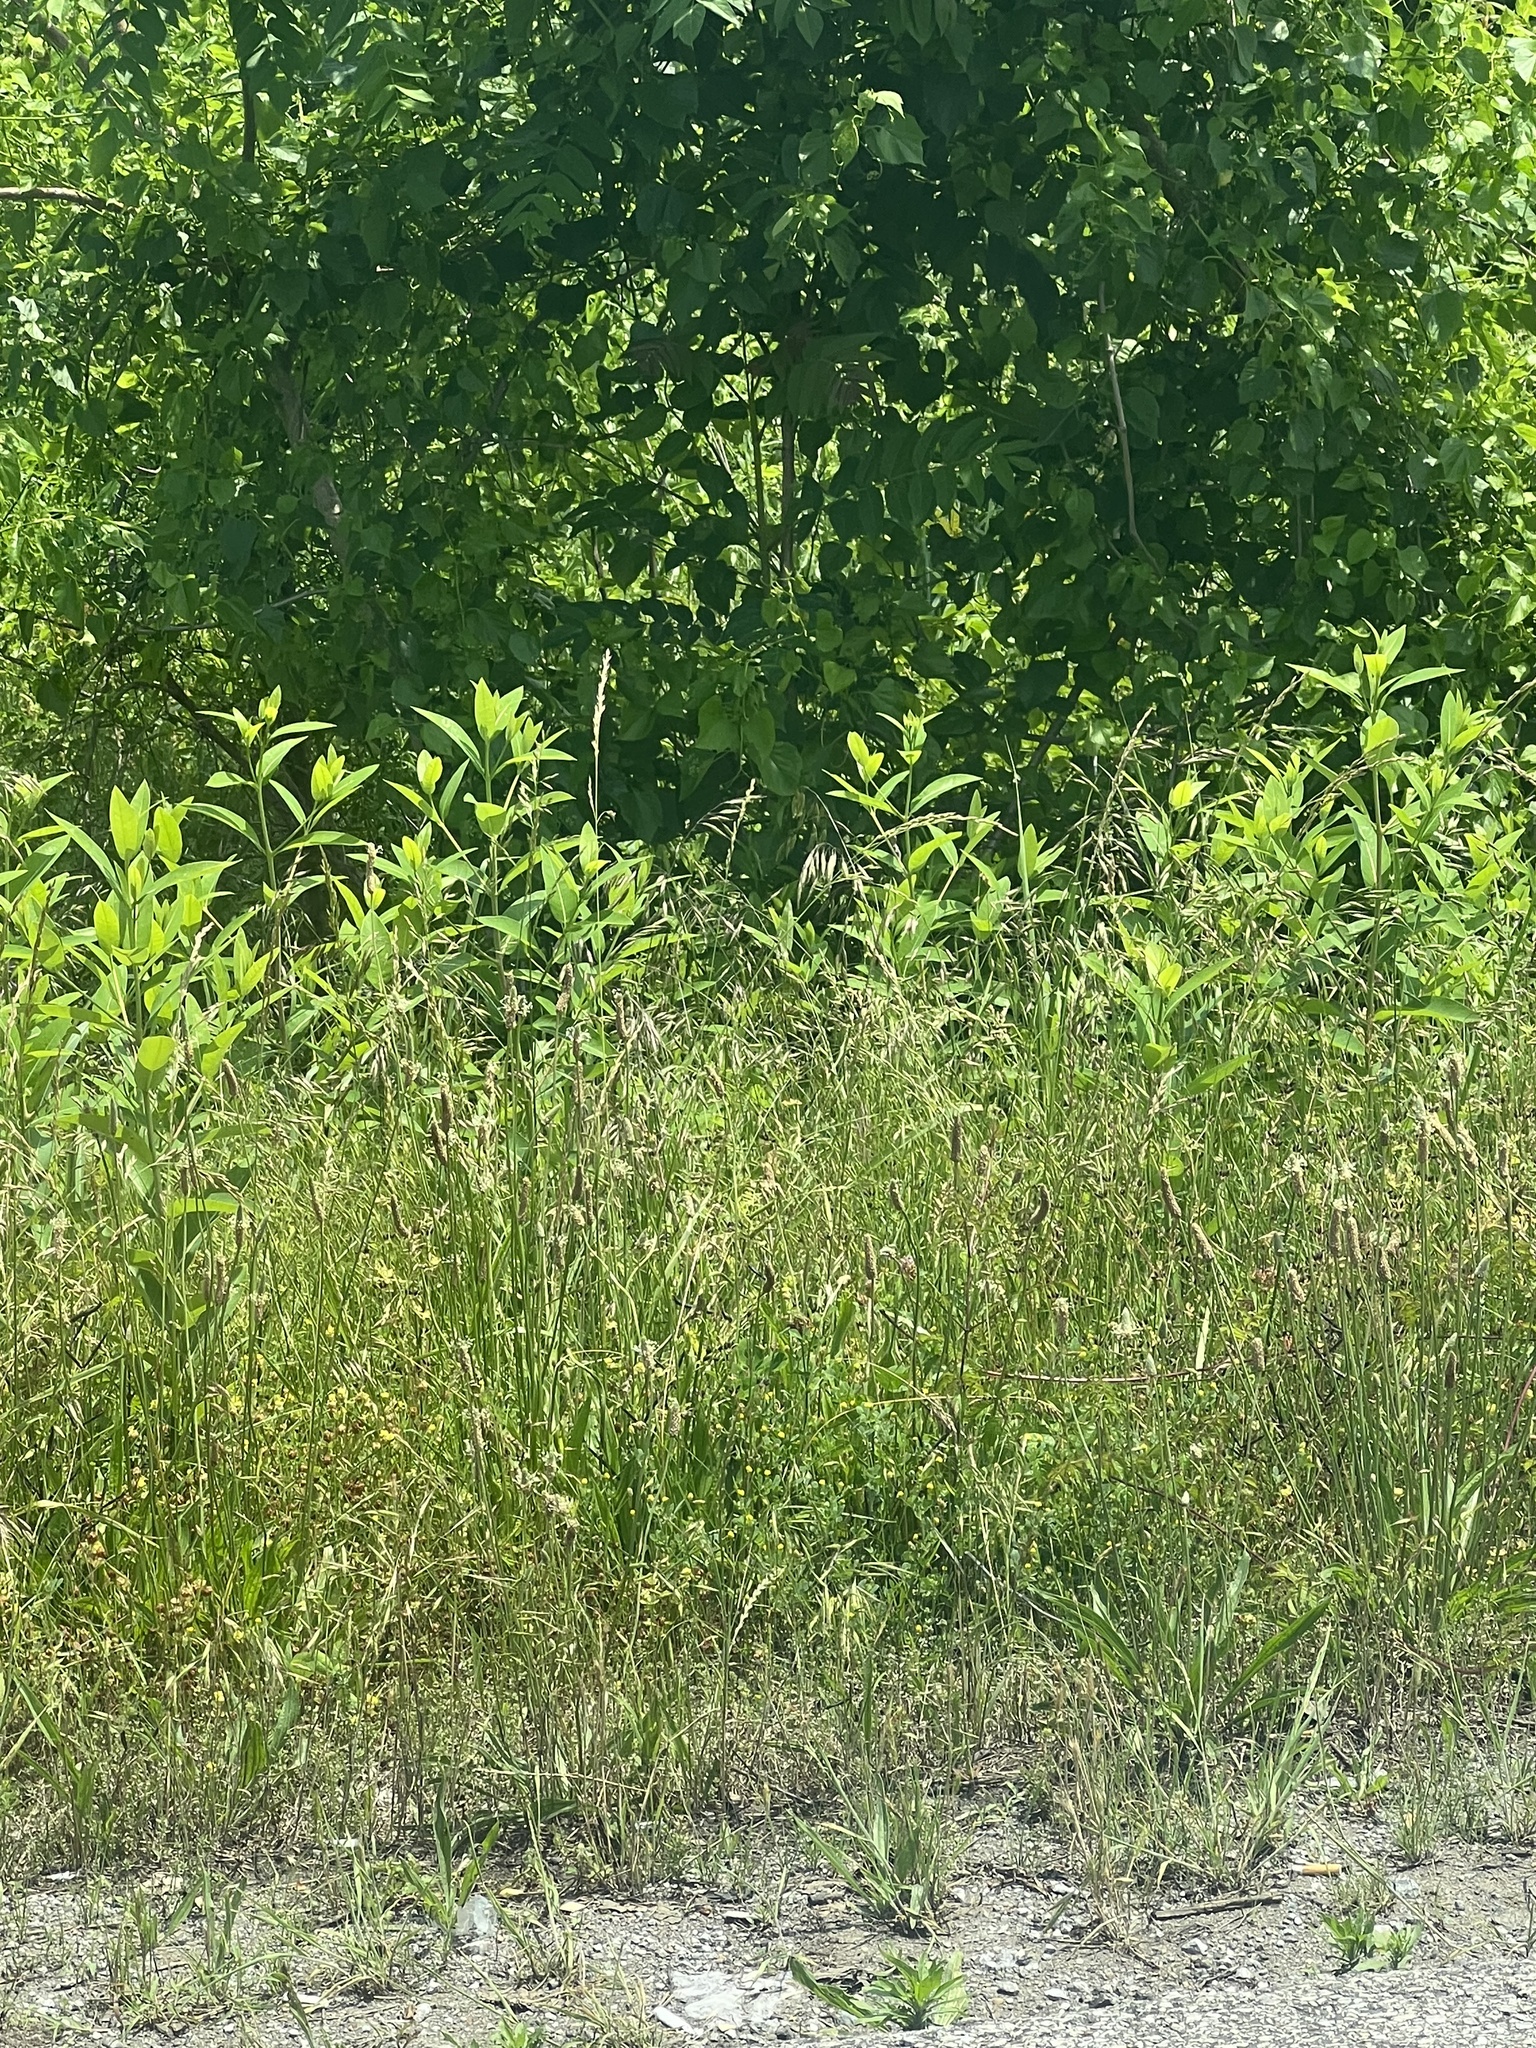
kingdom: Plantae
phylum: Tracheophyta
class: Magnoliopsida
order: Gentianales
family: Apocynaceae
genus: Apocynum
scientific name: Apocynum cannabinum
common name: Hemp dogbane
